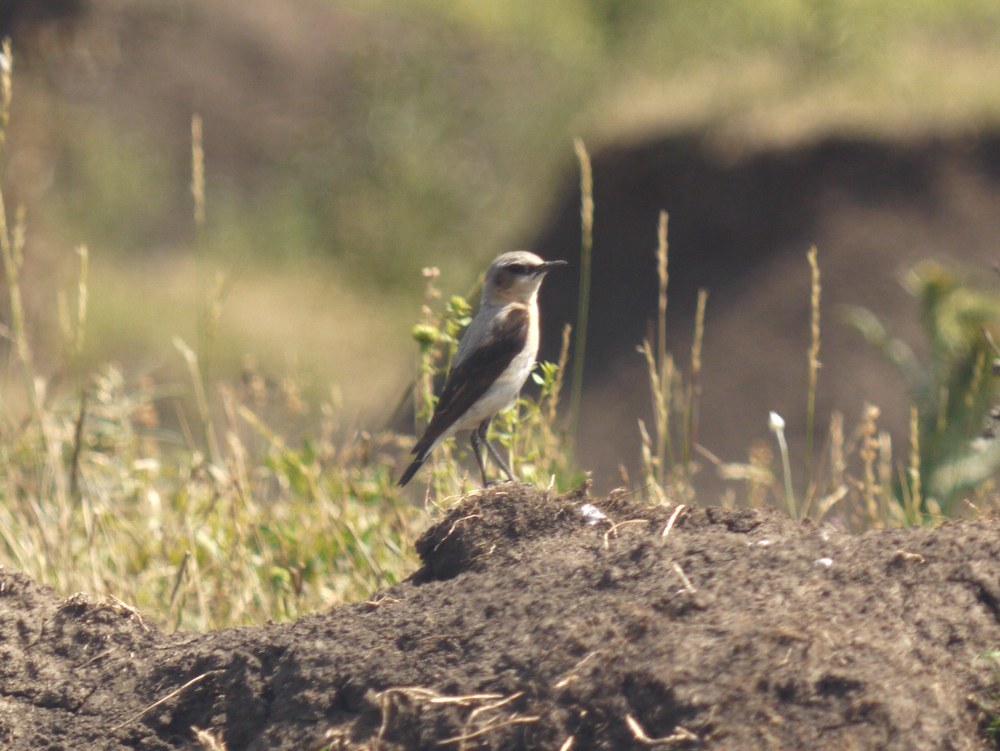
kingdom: Animalia
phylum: Chordata
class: Aves
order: Passeriformes
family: Muscicapidae
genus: Oenanthe
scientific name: Oenanthe oenanthe
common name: Northern wheatear
